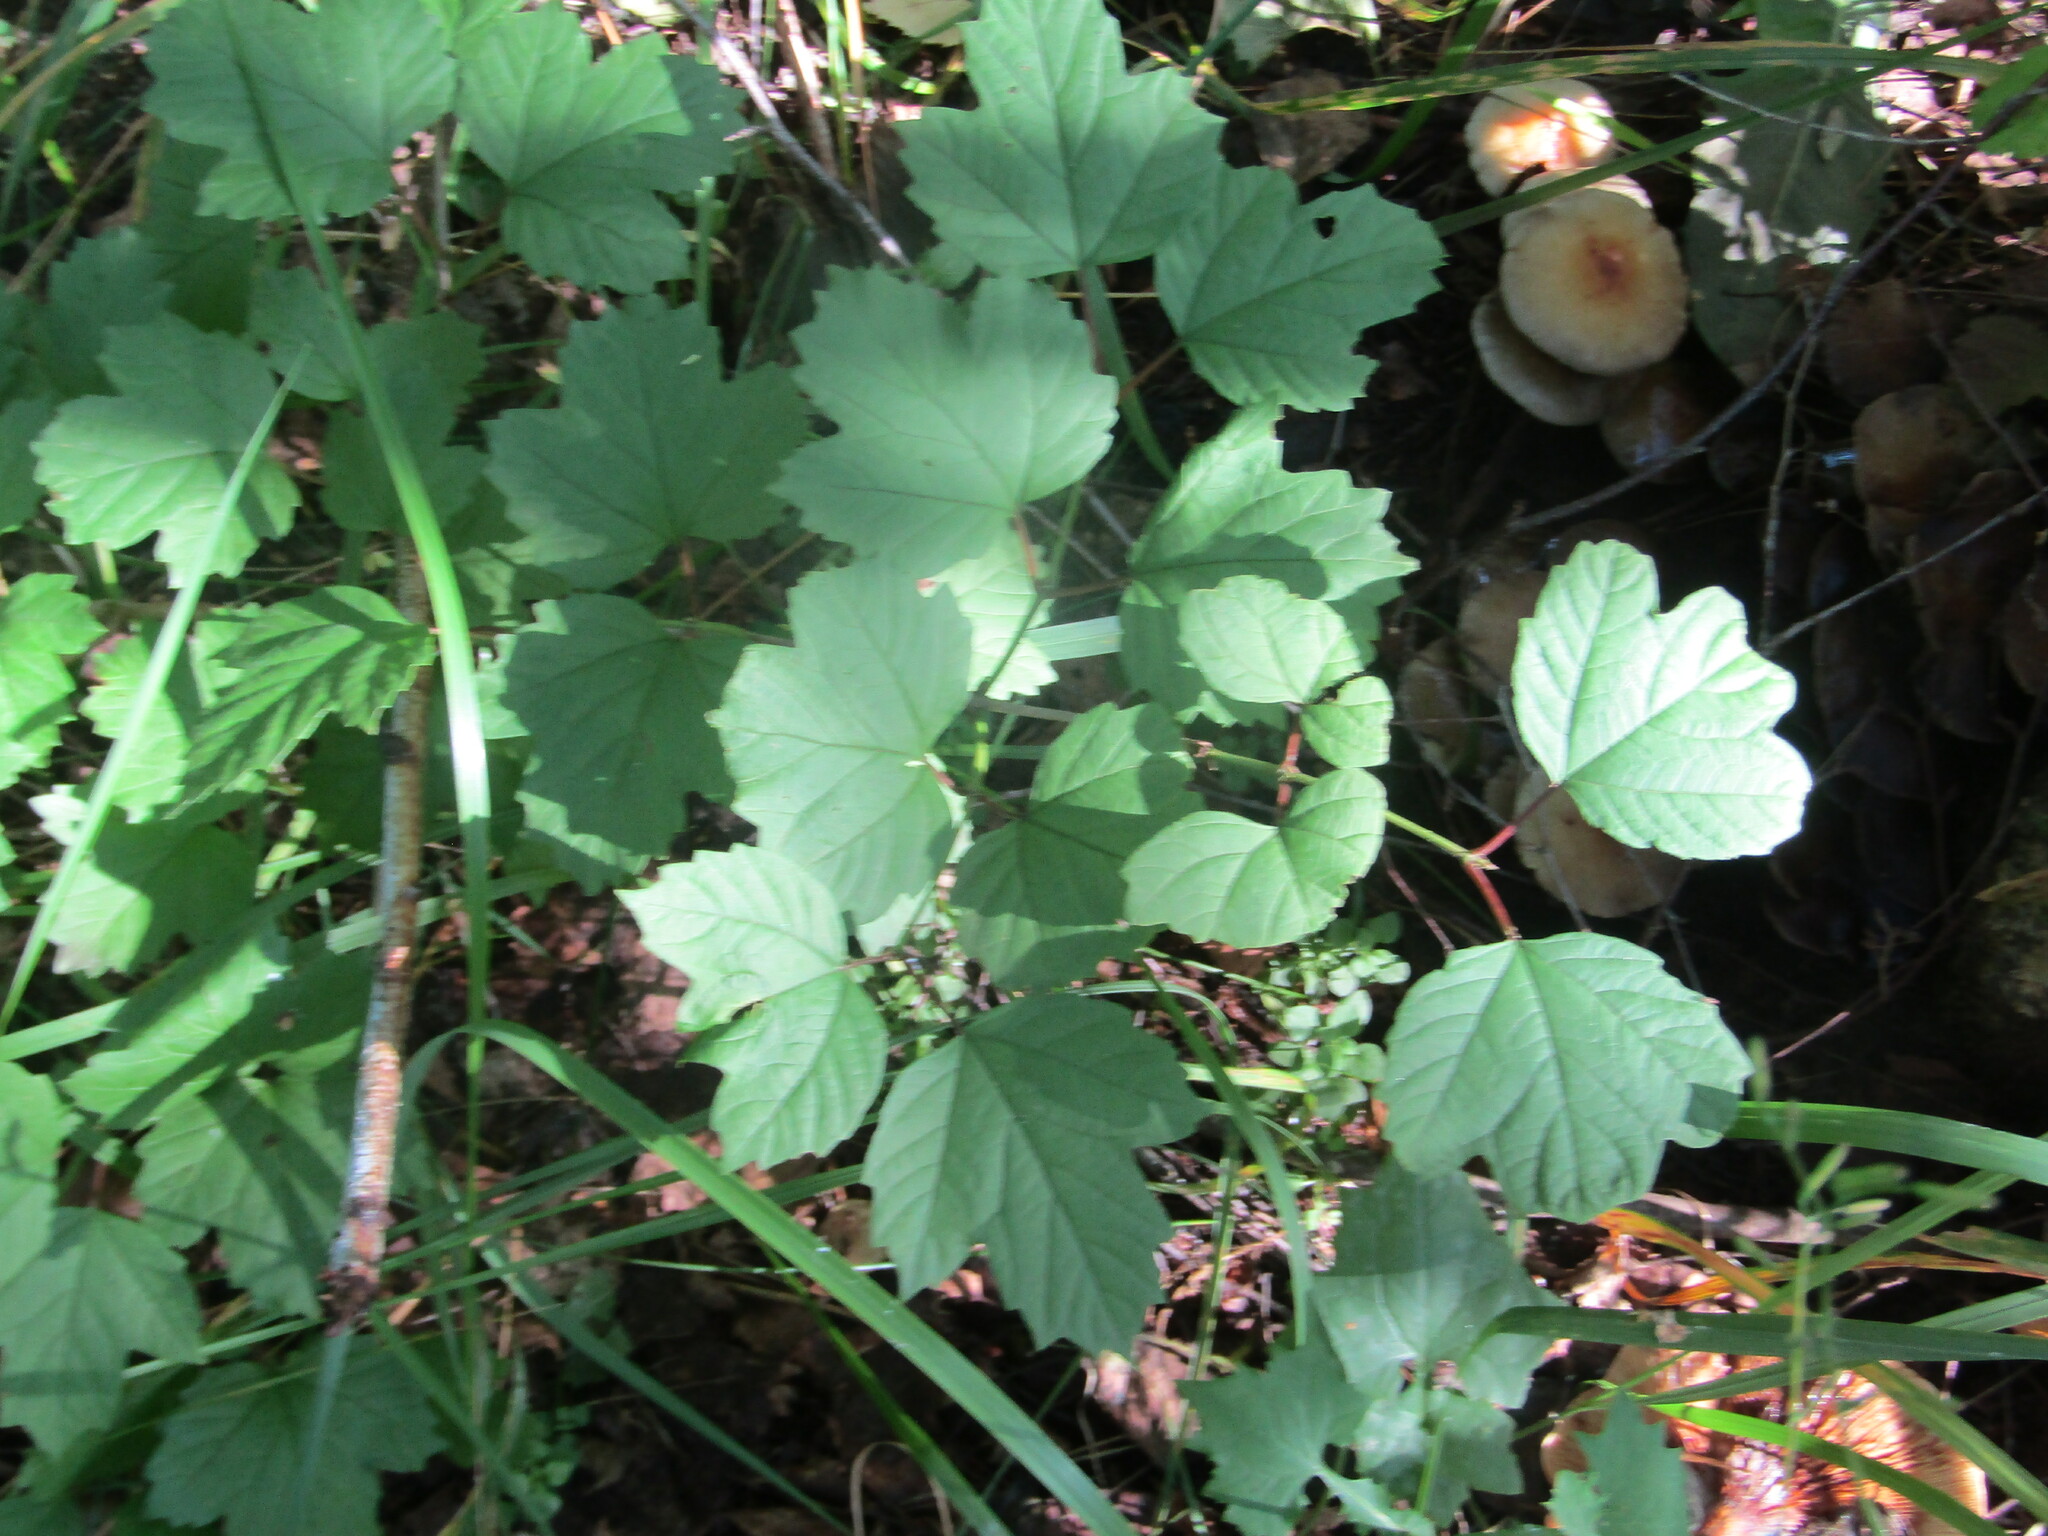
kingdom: Plantae
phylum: Tracheophyta
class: Magnoliopsida
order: Dipsacales
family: Viburnaceae
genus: Viburnum
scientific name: Viburnum opulus
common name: Guelder-rose
